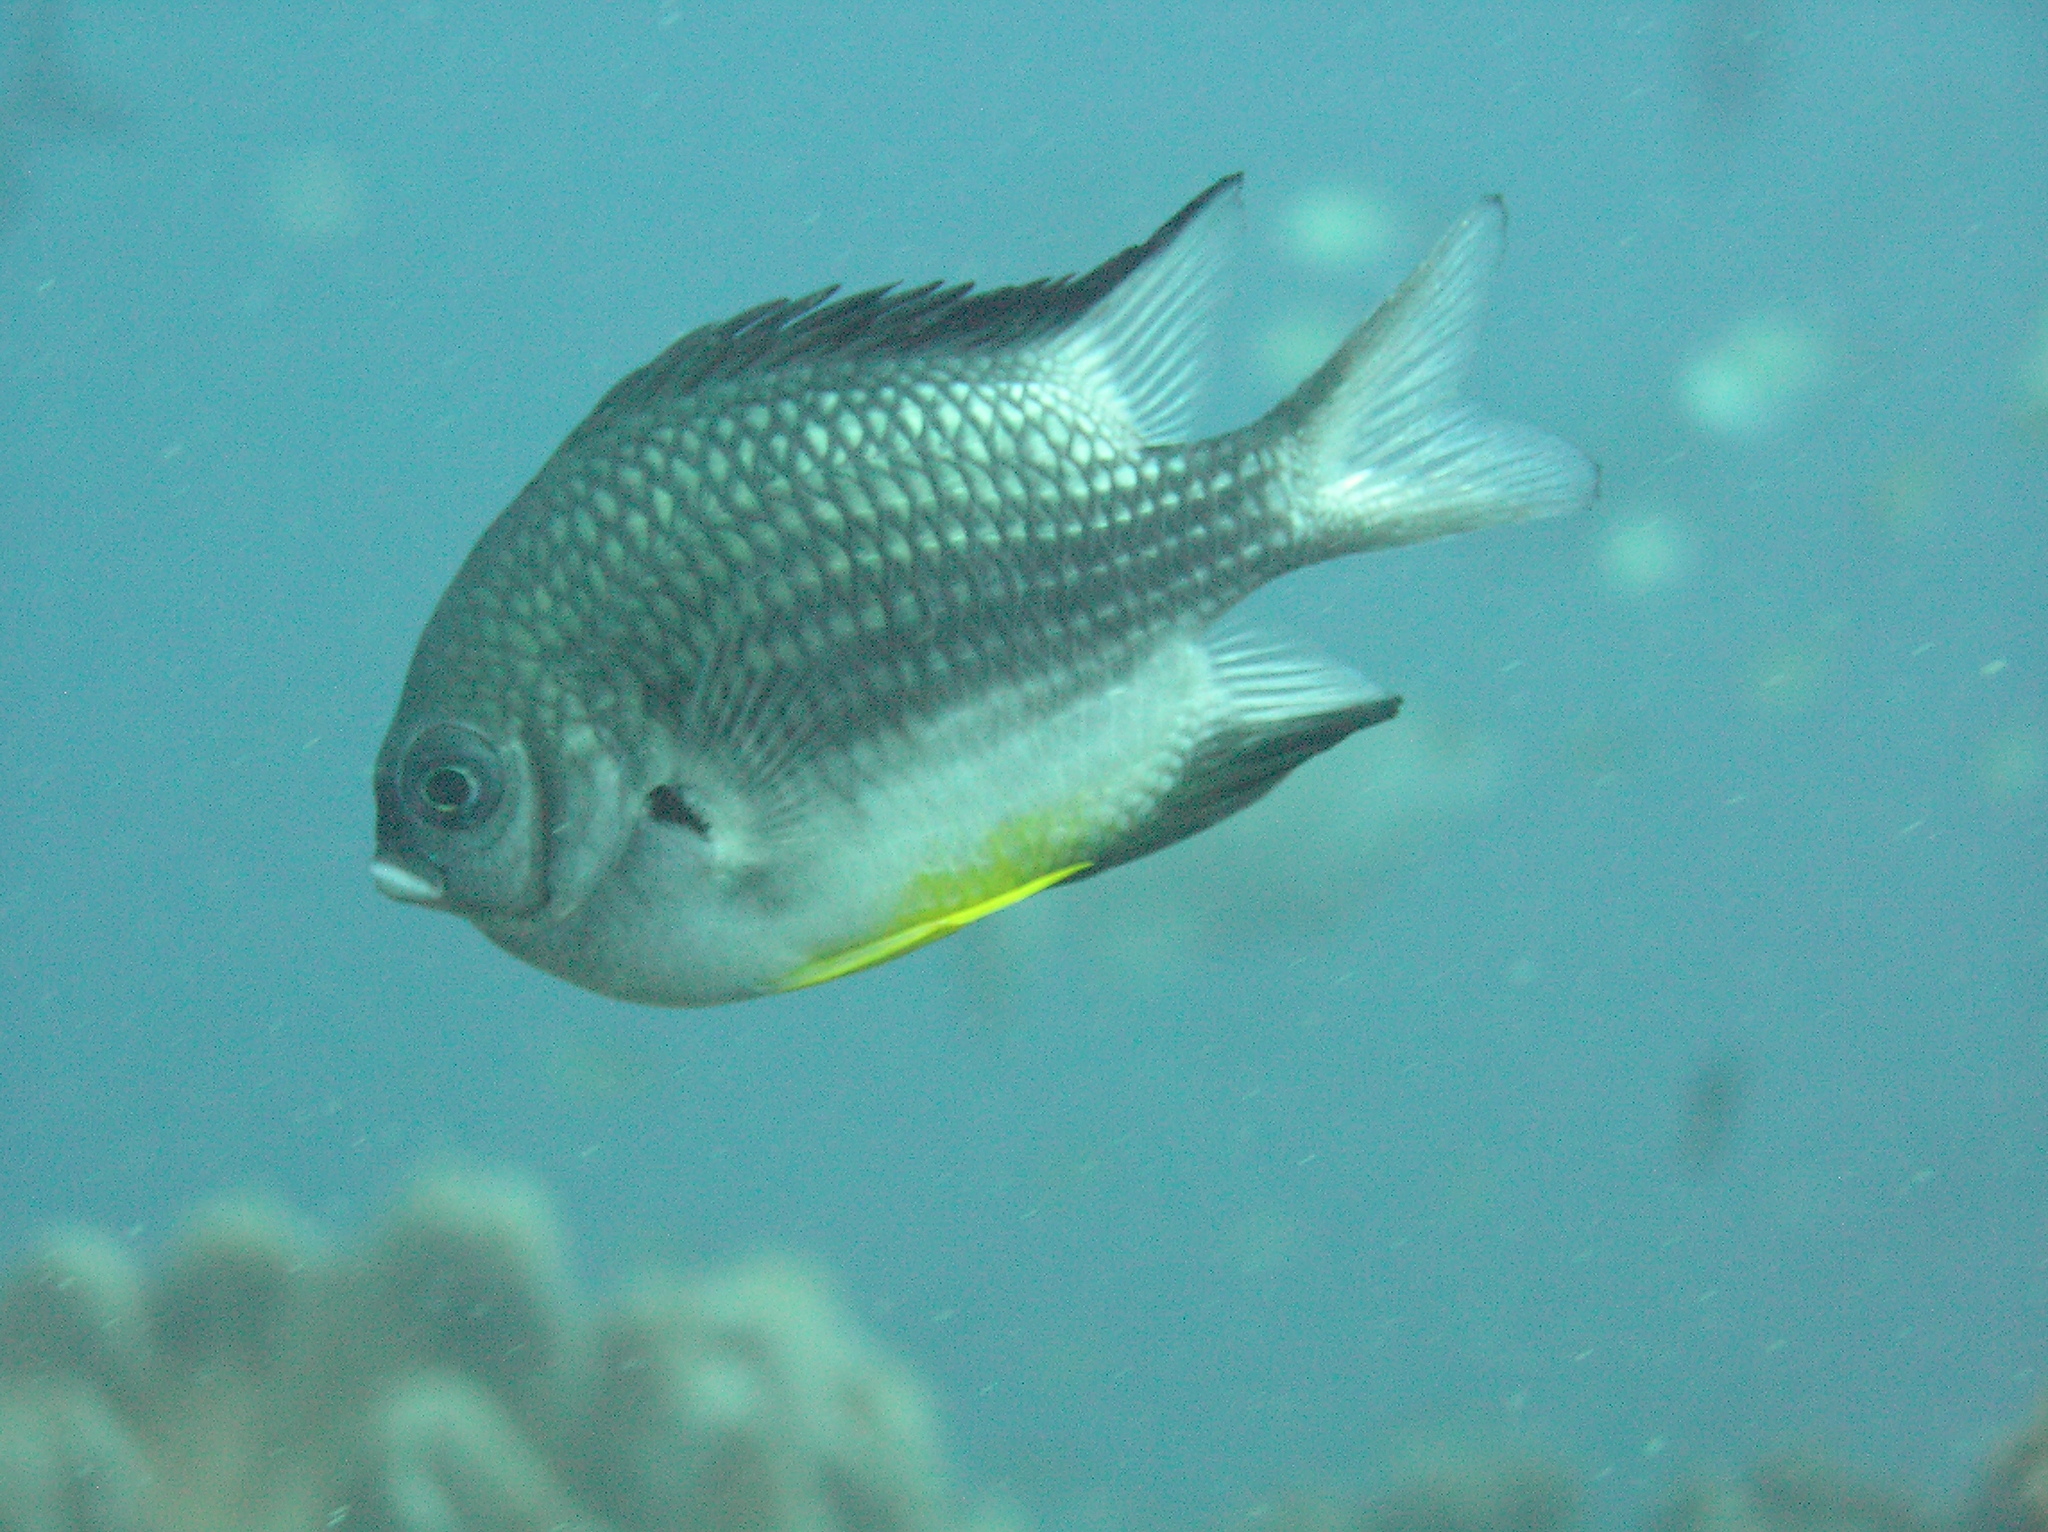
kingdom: Animalia
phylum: Chordata
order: Perciformes
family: Pomacentridae
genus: Amblyglyphidodon
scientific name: Amblyglyphidodon leucogaster
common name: White-belly damsel
